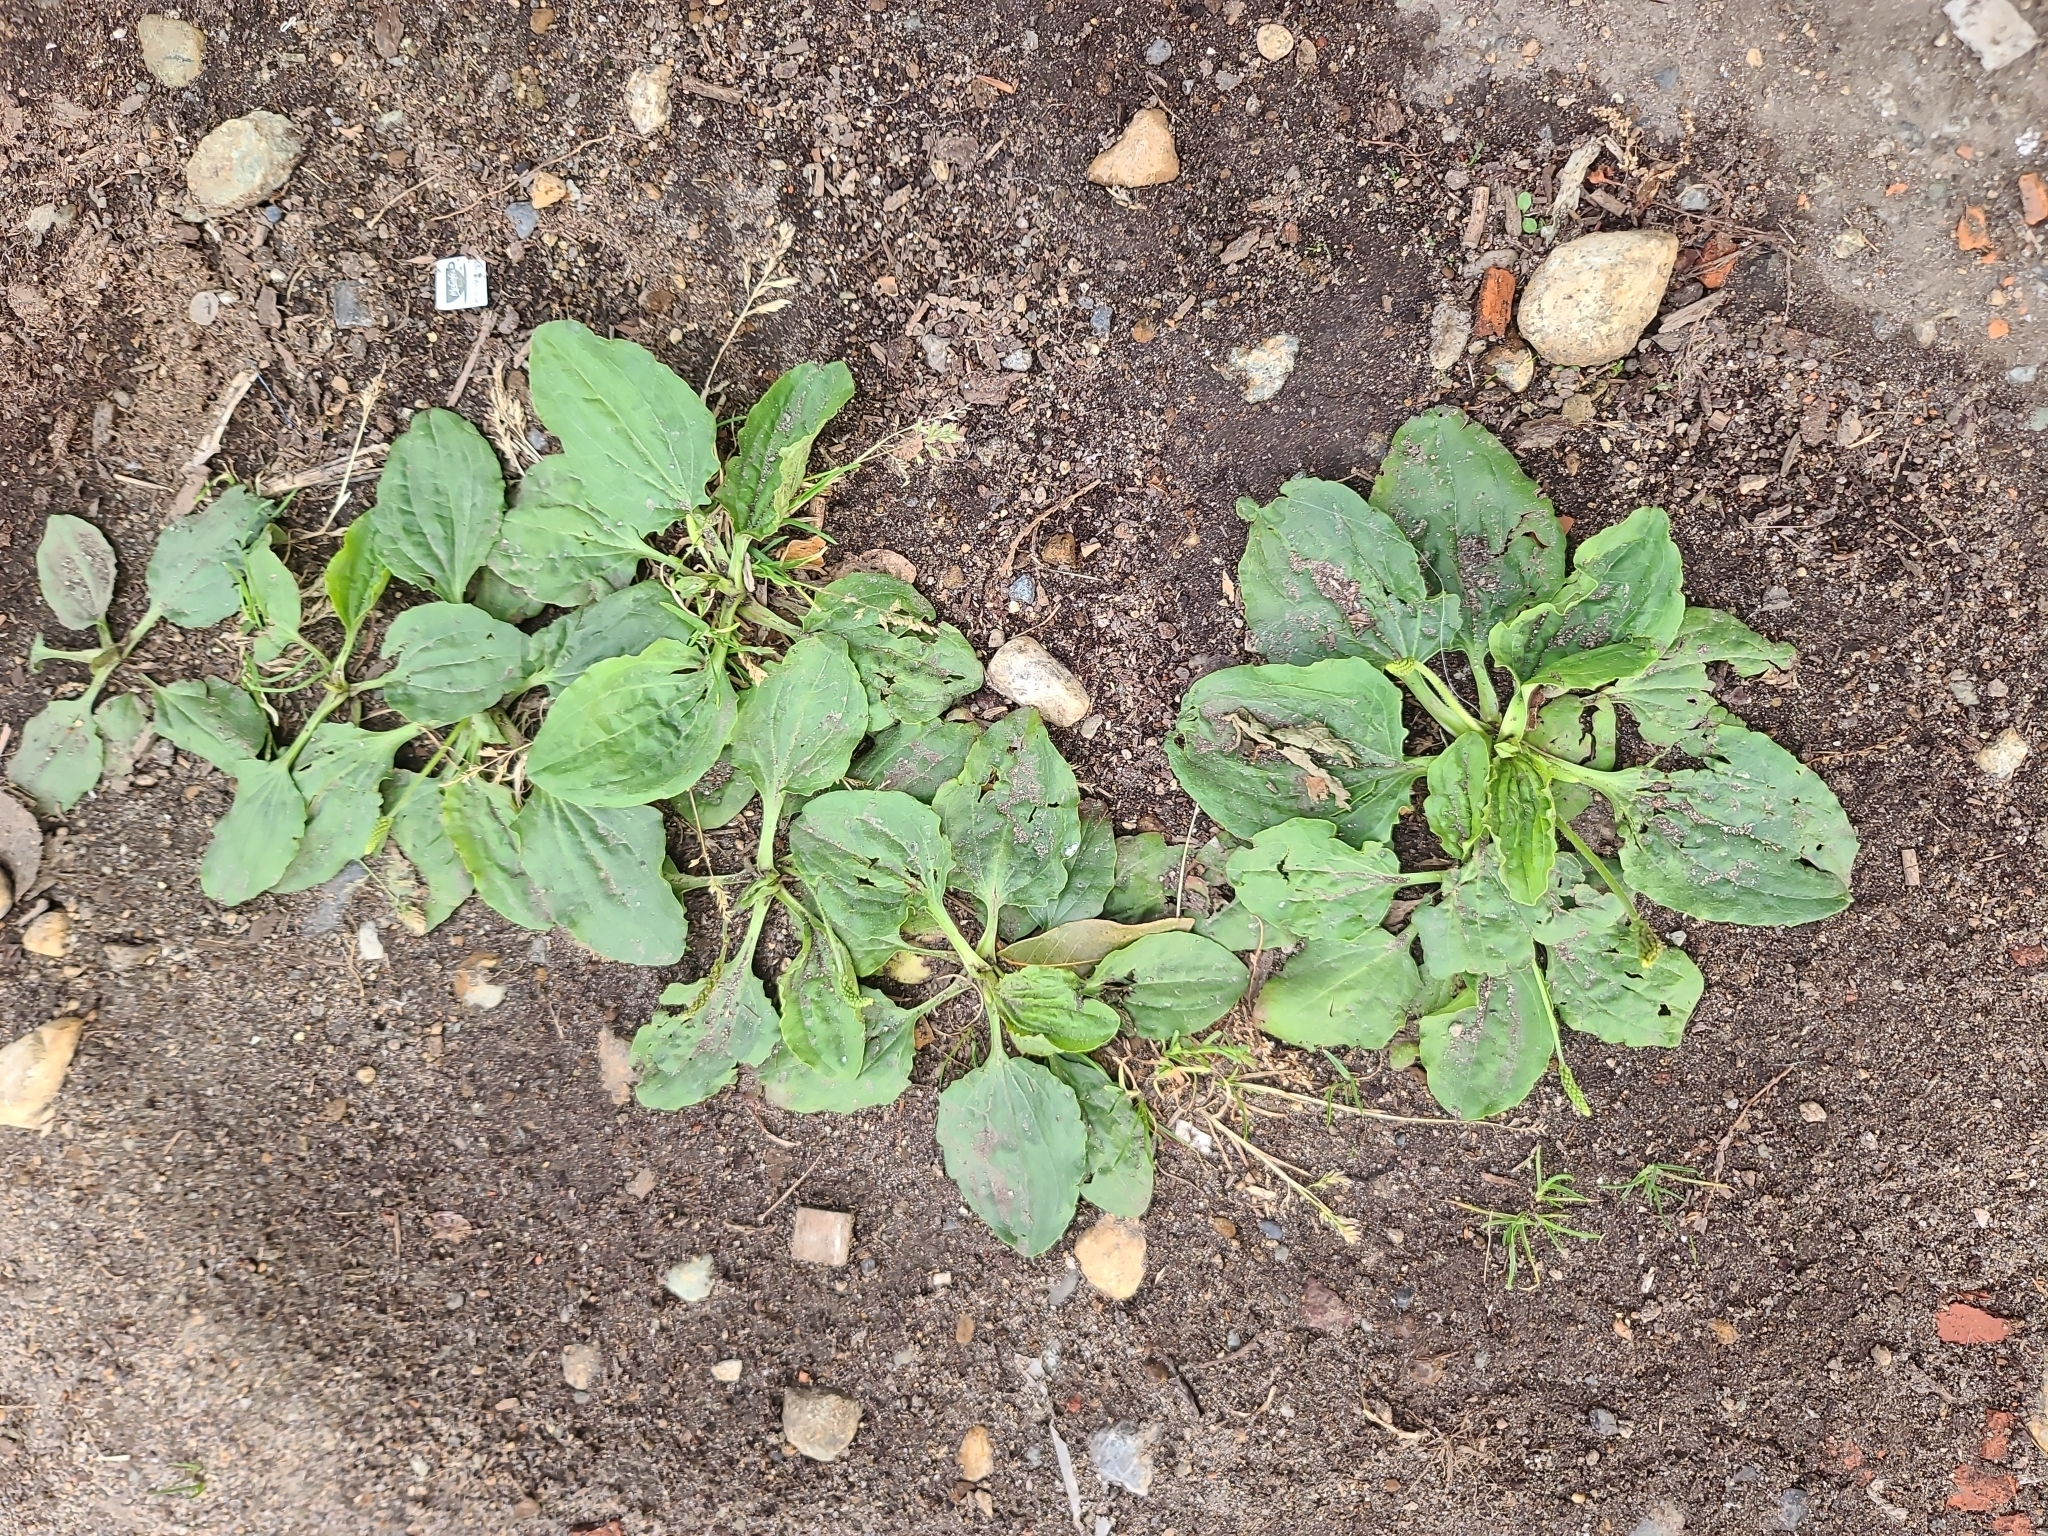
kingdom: Plantae
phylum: Tracheophyta
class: Magnoliopsida
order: Lamiales
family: Plantaginaceae
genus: Plantago
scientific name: Plantago major
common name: Common plantain
